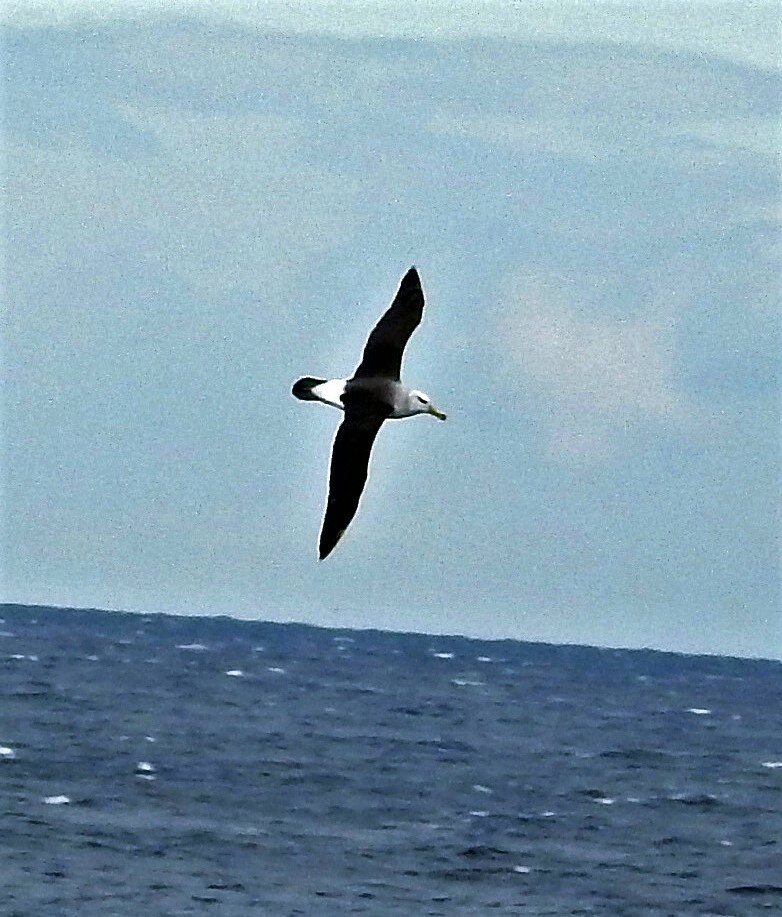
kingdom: Animalia
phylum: Chordata
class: Aves
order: Procellariiformes
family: Diomedeidae
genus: Thalassarche
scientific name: Thalassarche melanophris
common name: Black-browed albatross
